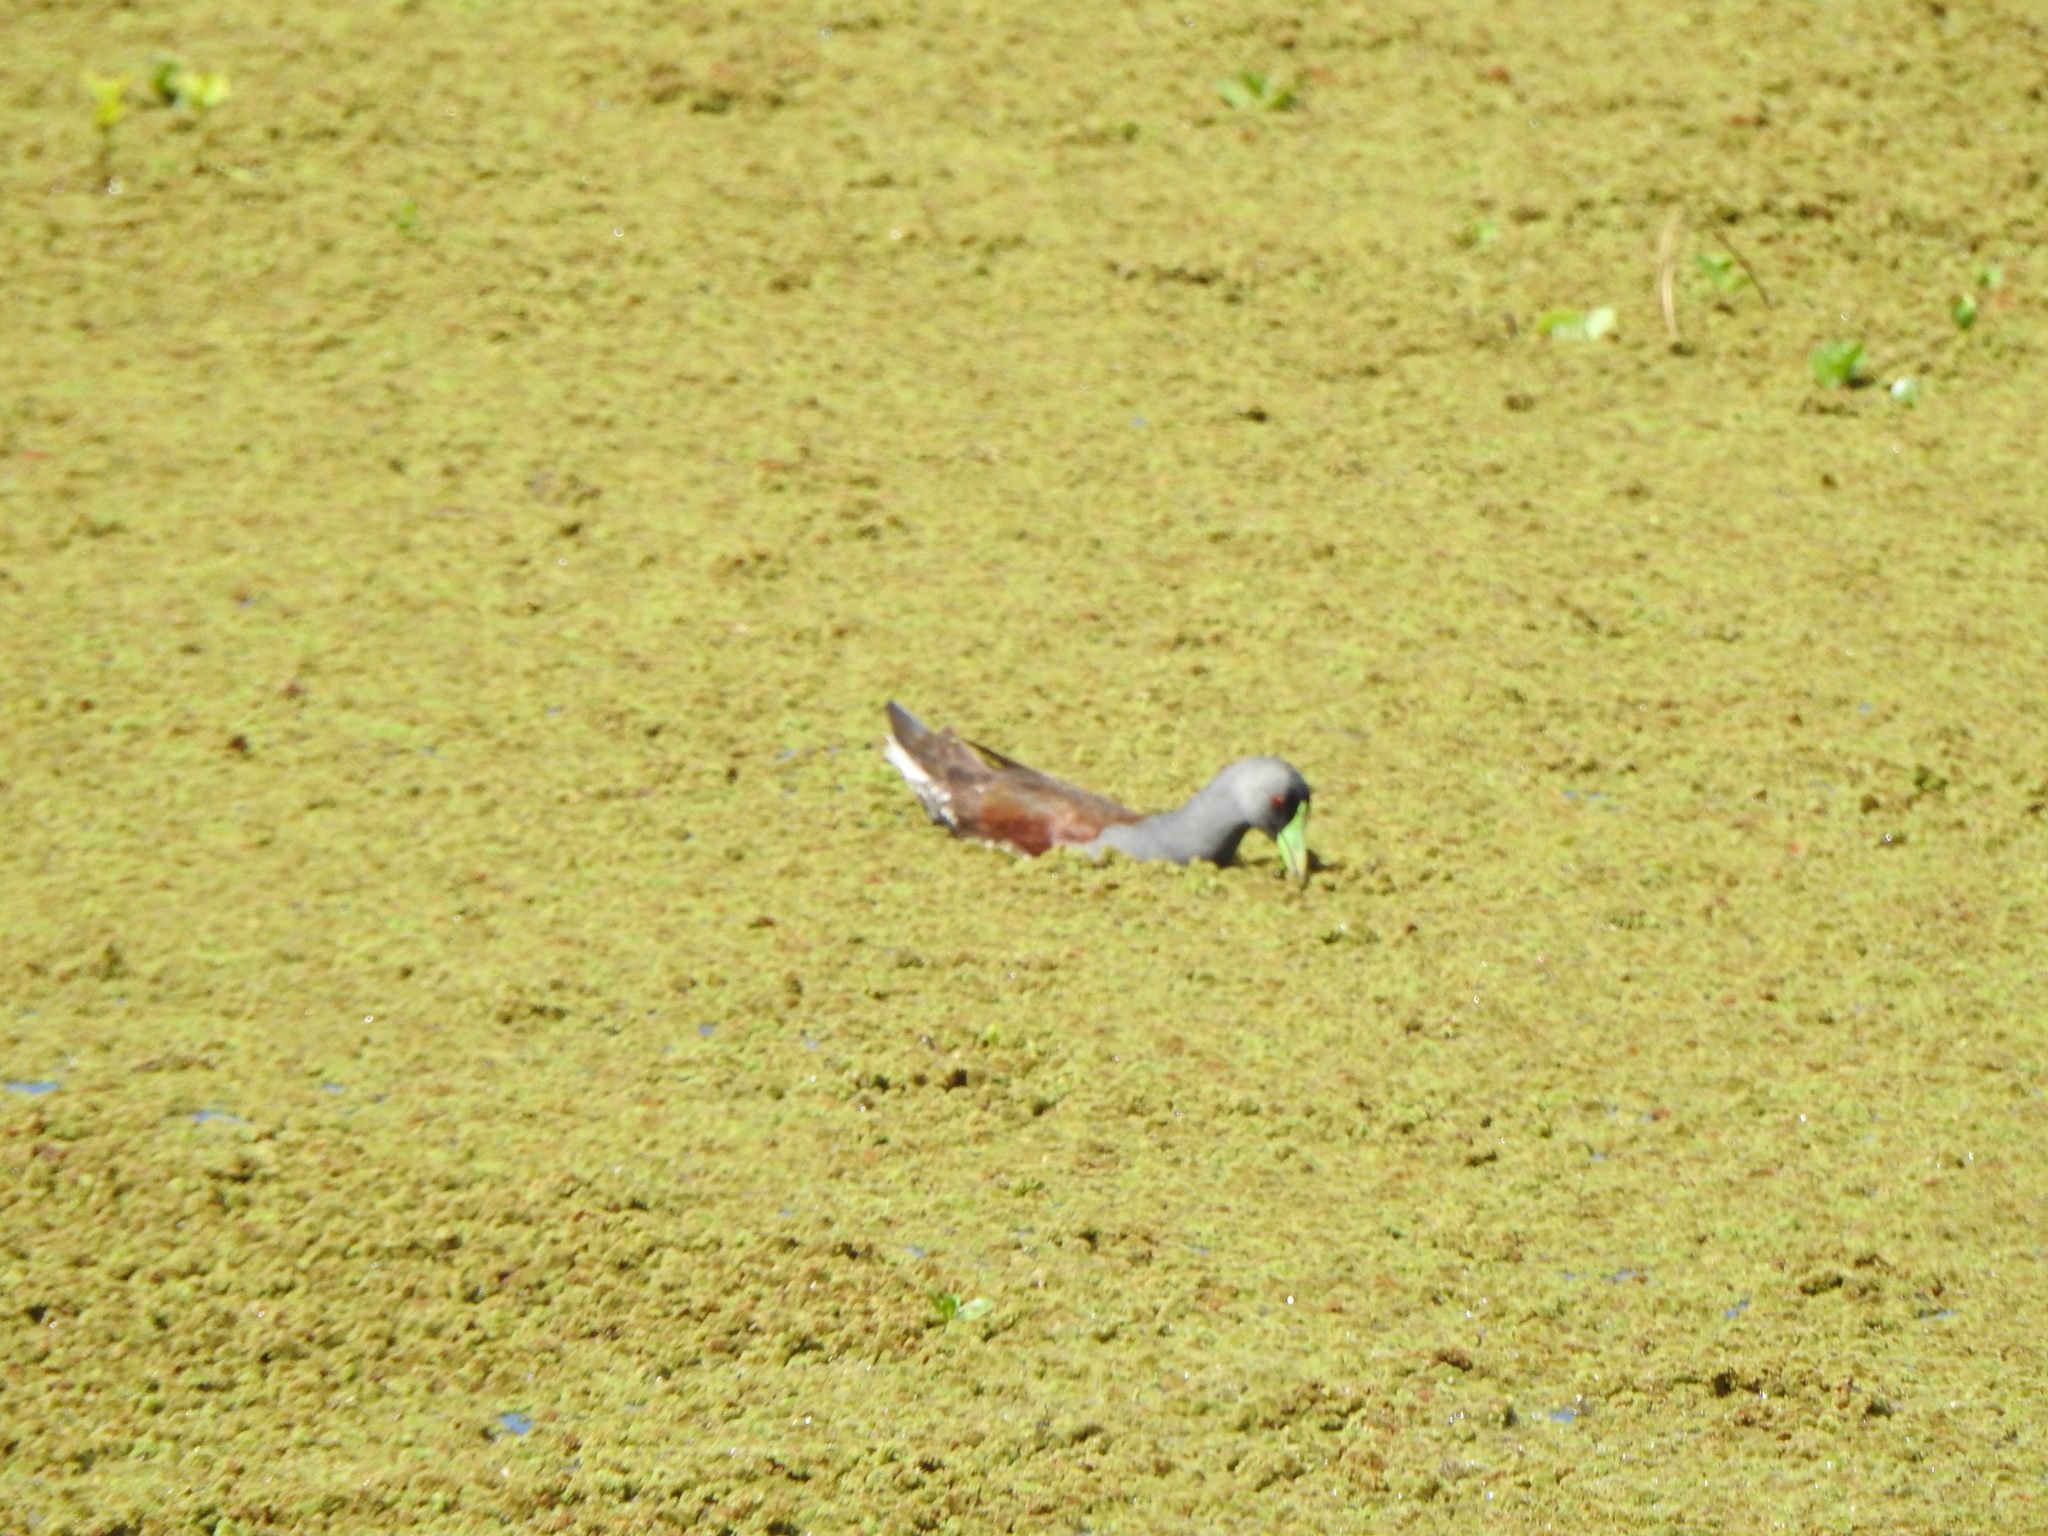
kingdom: Animalia
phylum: Chordata
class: Aves
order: Gruiformes
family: Rallidae
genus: Gallinula
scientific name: Gallinula melanops
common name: Spot-flanked gallinule
